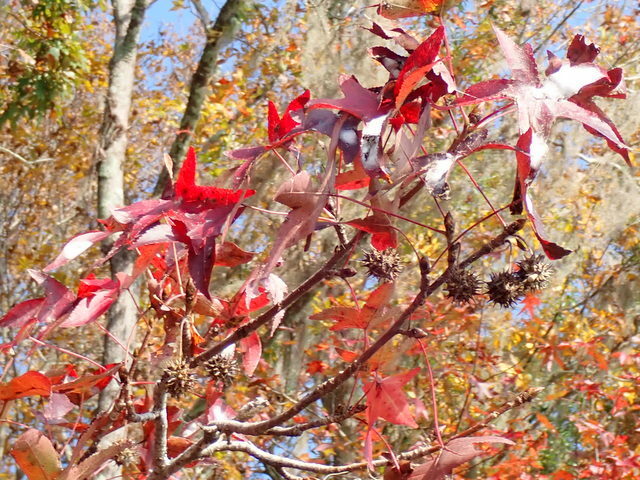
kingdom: Plantae
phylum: Tracheophyta
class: Magnoliopsida
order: Saxifragales
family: Altingiaceae
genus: Liquidambar
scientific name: Liquidambar styraciflua
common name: Sweet gum
